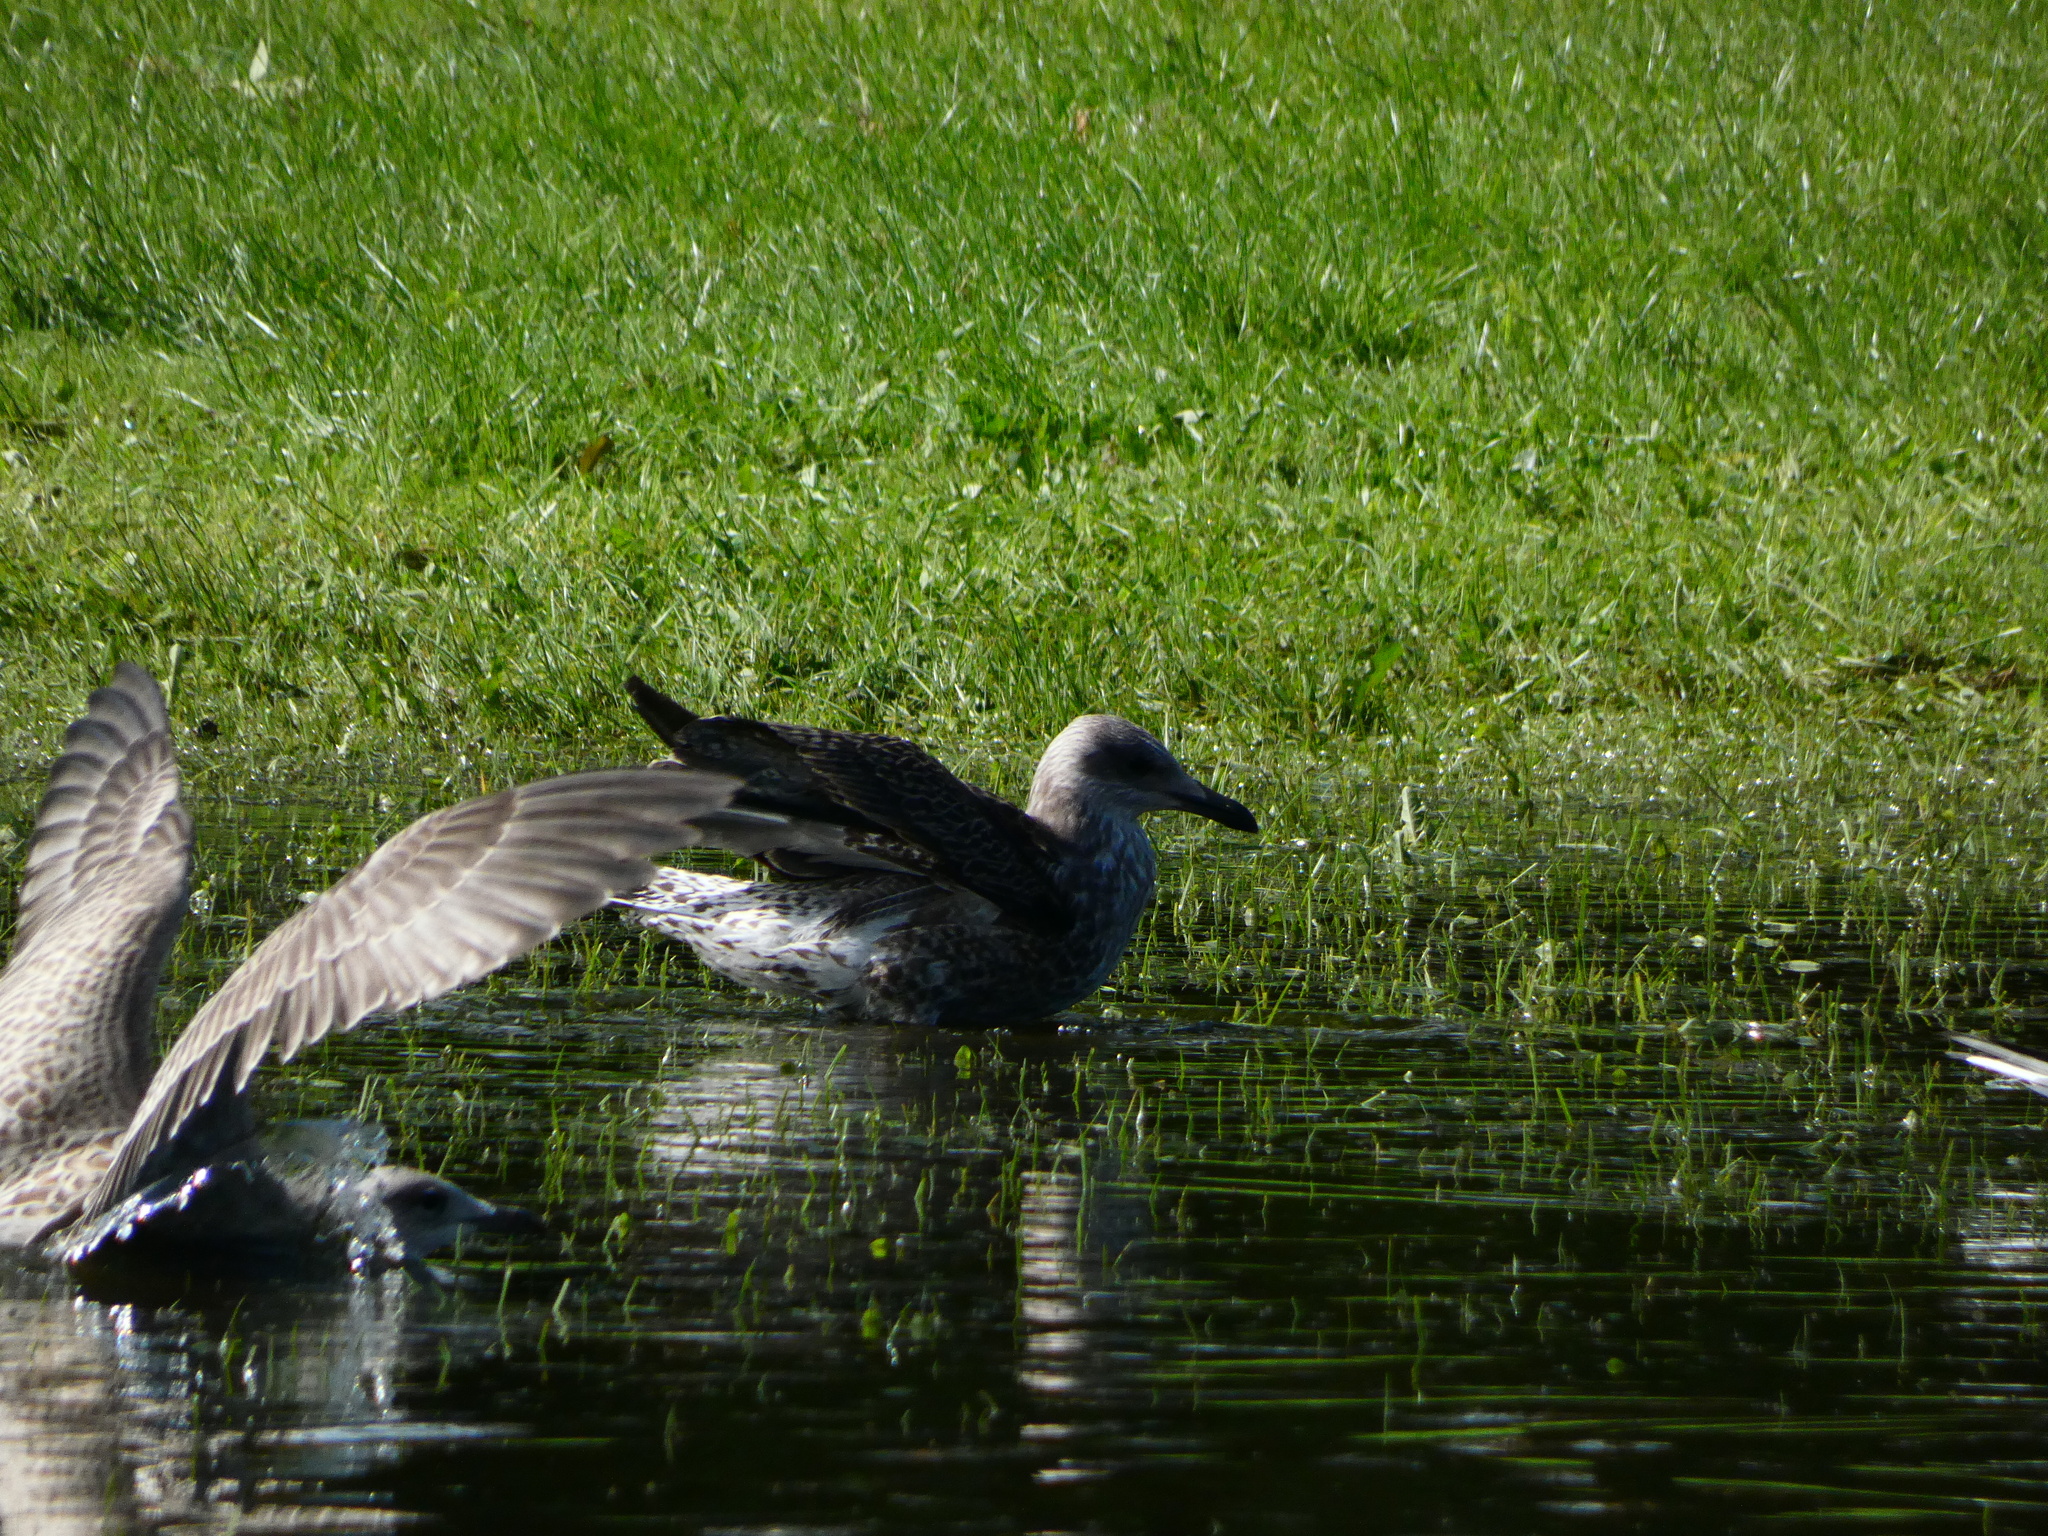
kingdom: Animalia
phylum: Chordata
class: Aves
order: Charadriiformes
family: Laridae
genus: Larus
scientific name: Larus fuscus
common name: Lesser black-backed gull
